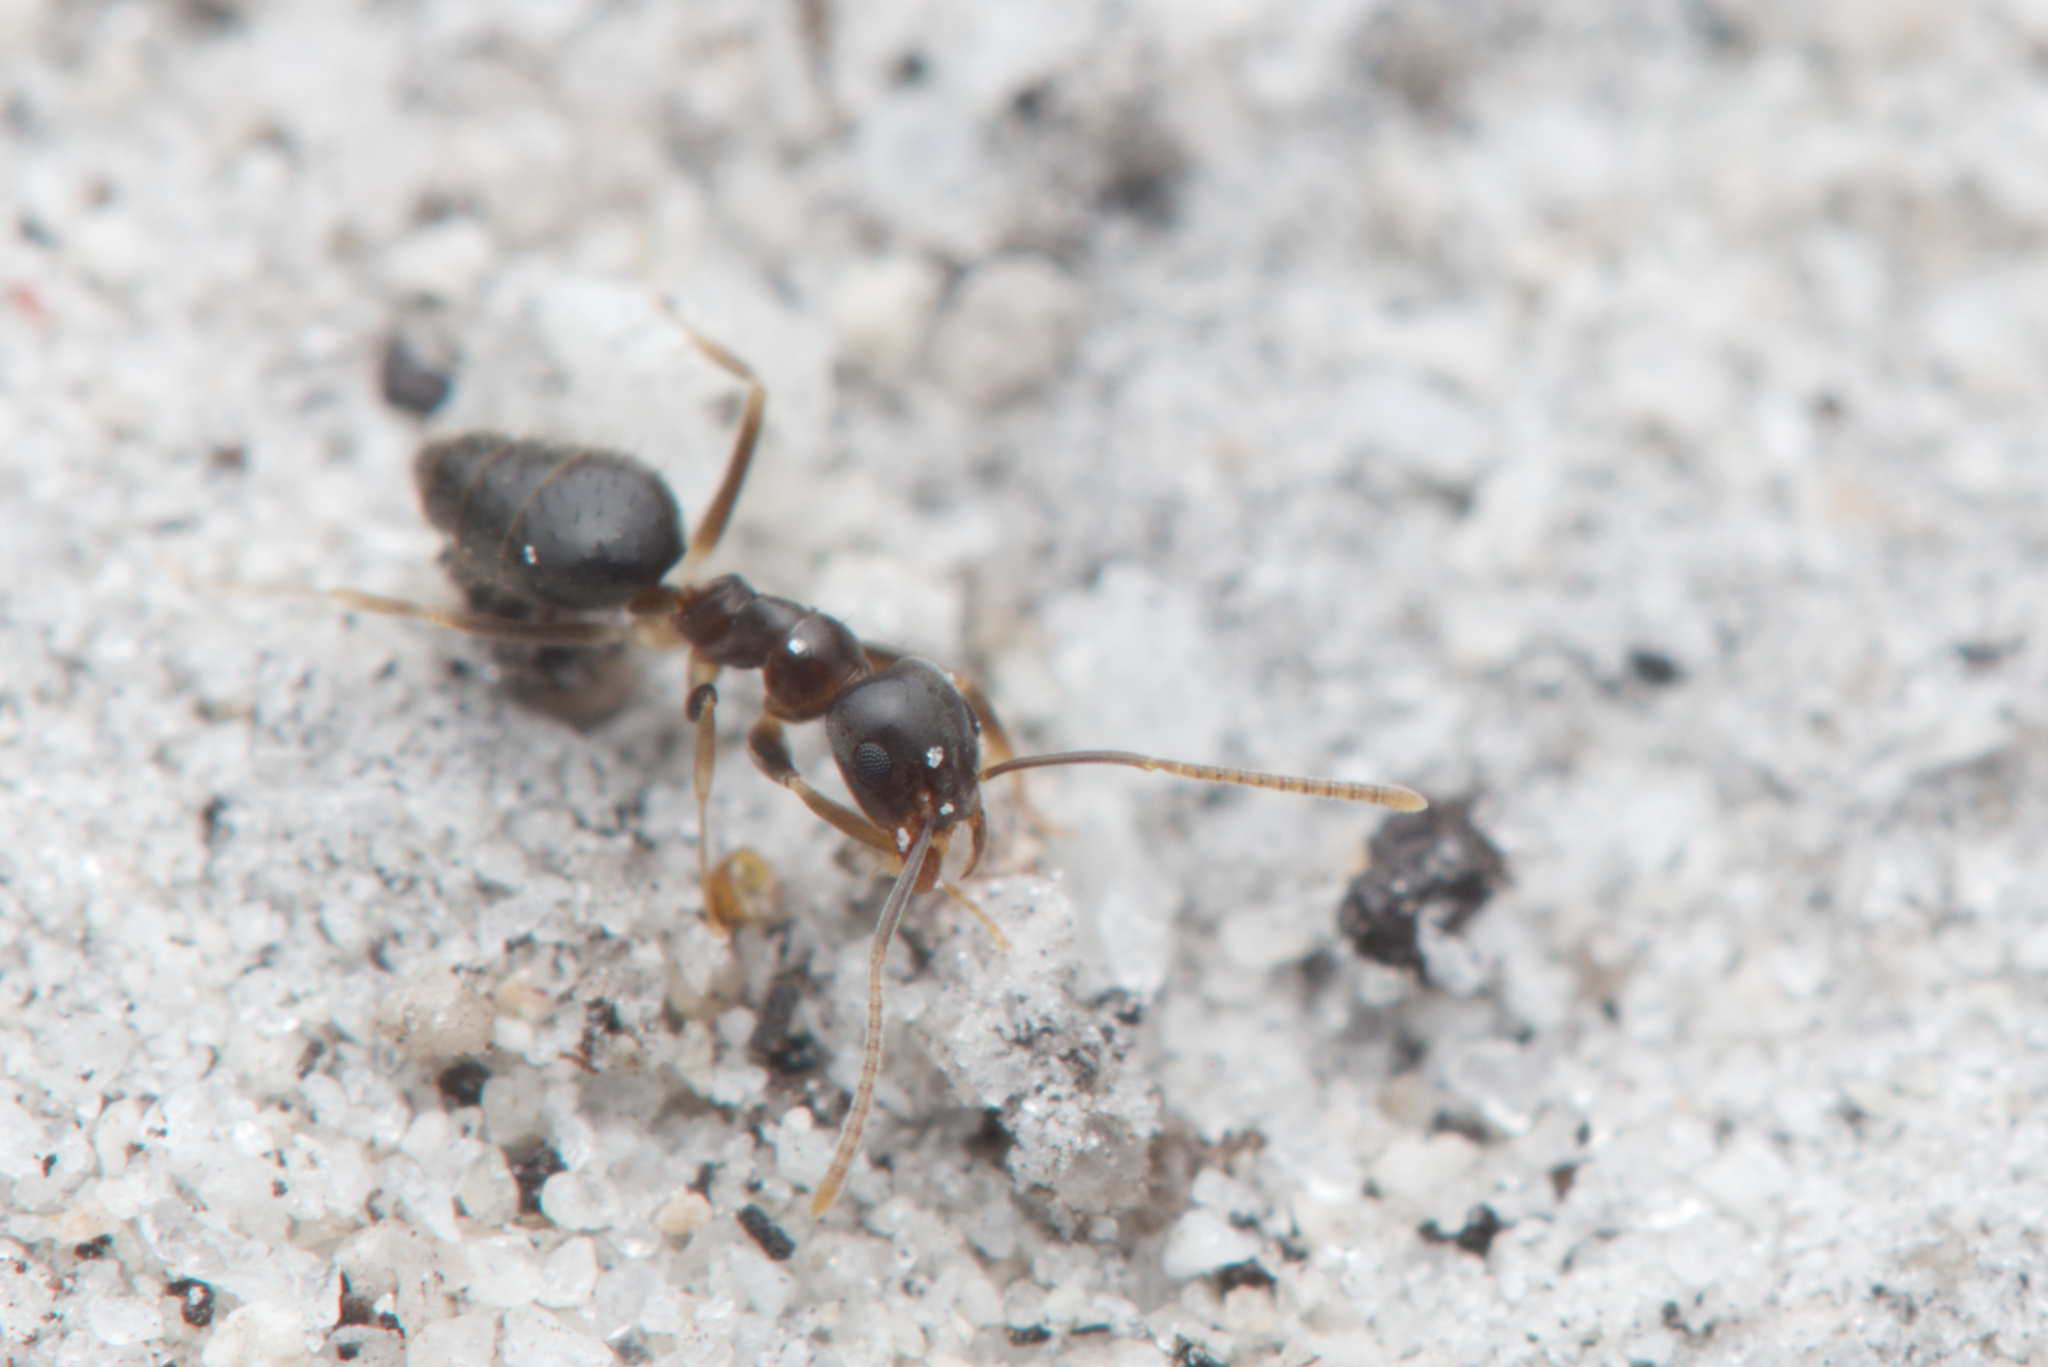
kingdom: Animalia
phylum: Arthropoda
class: Insecta
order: Hymenoptera
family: Formicidae
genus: Technomyrmex
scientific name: Technomyrmex
